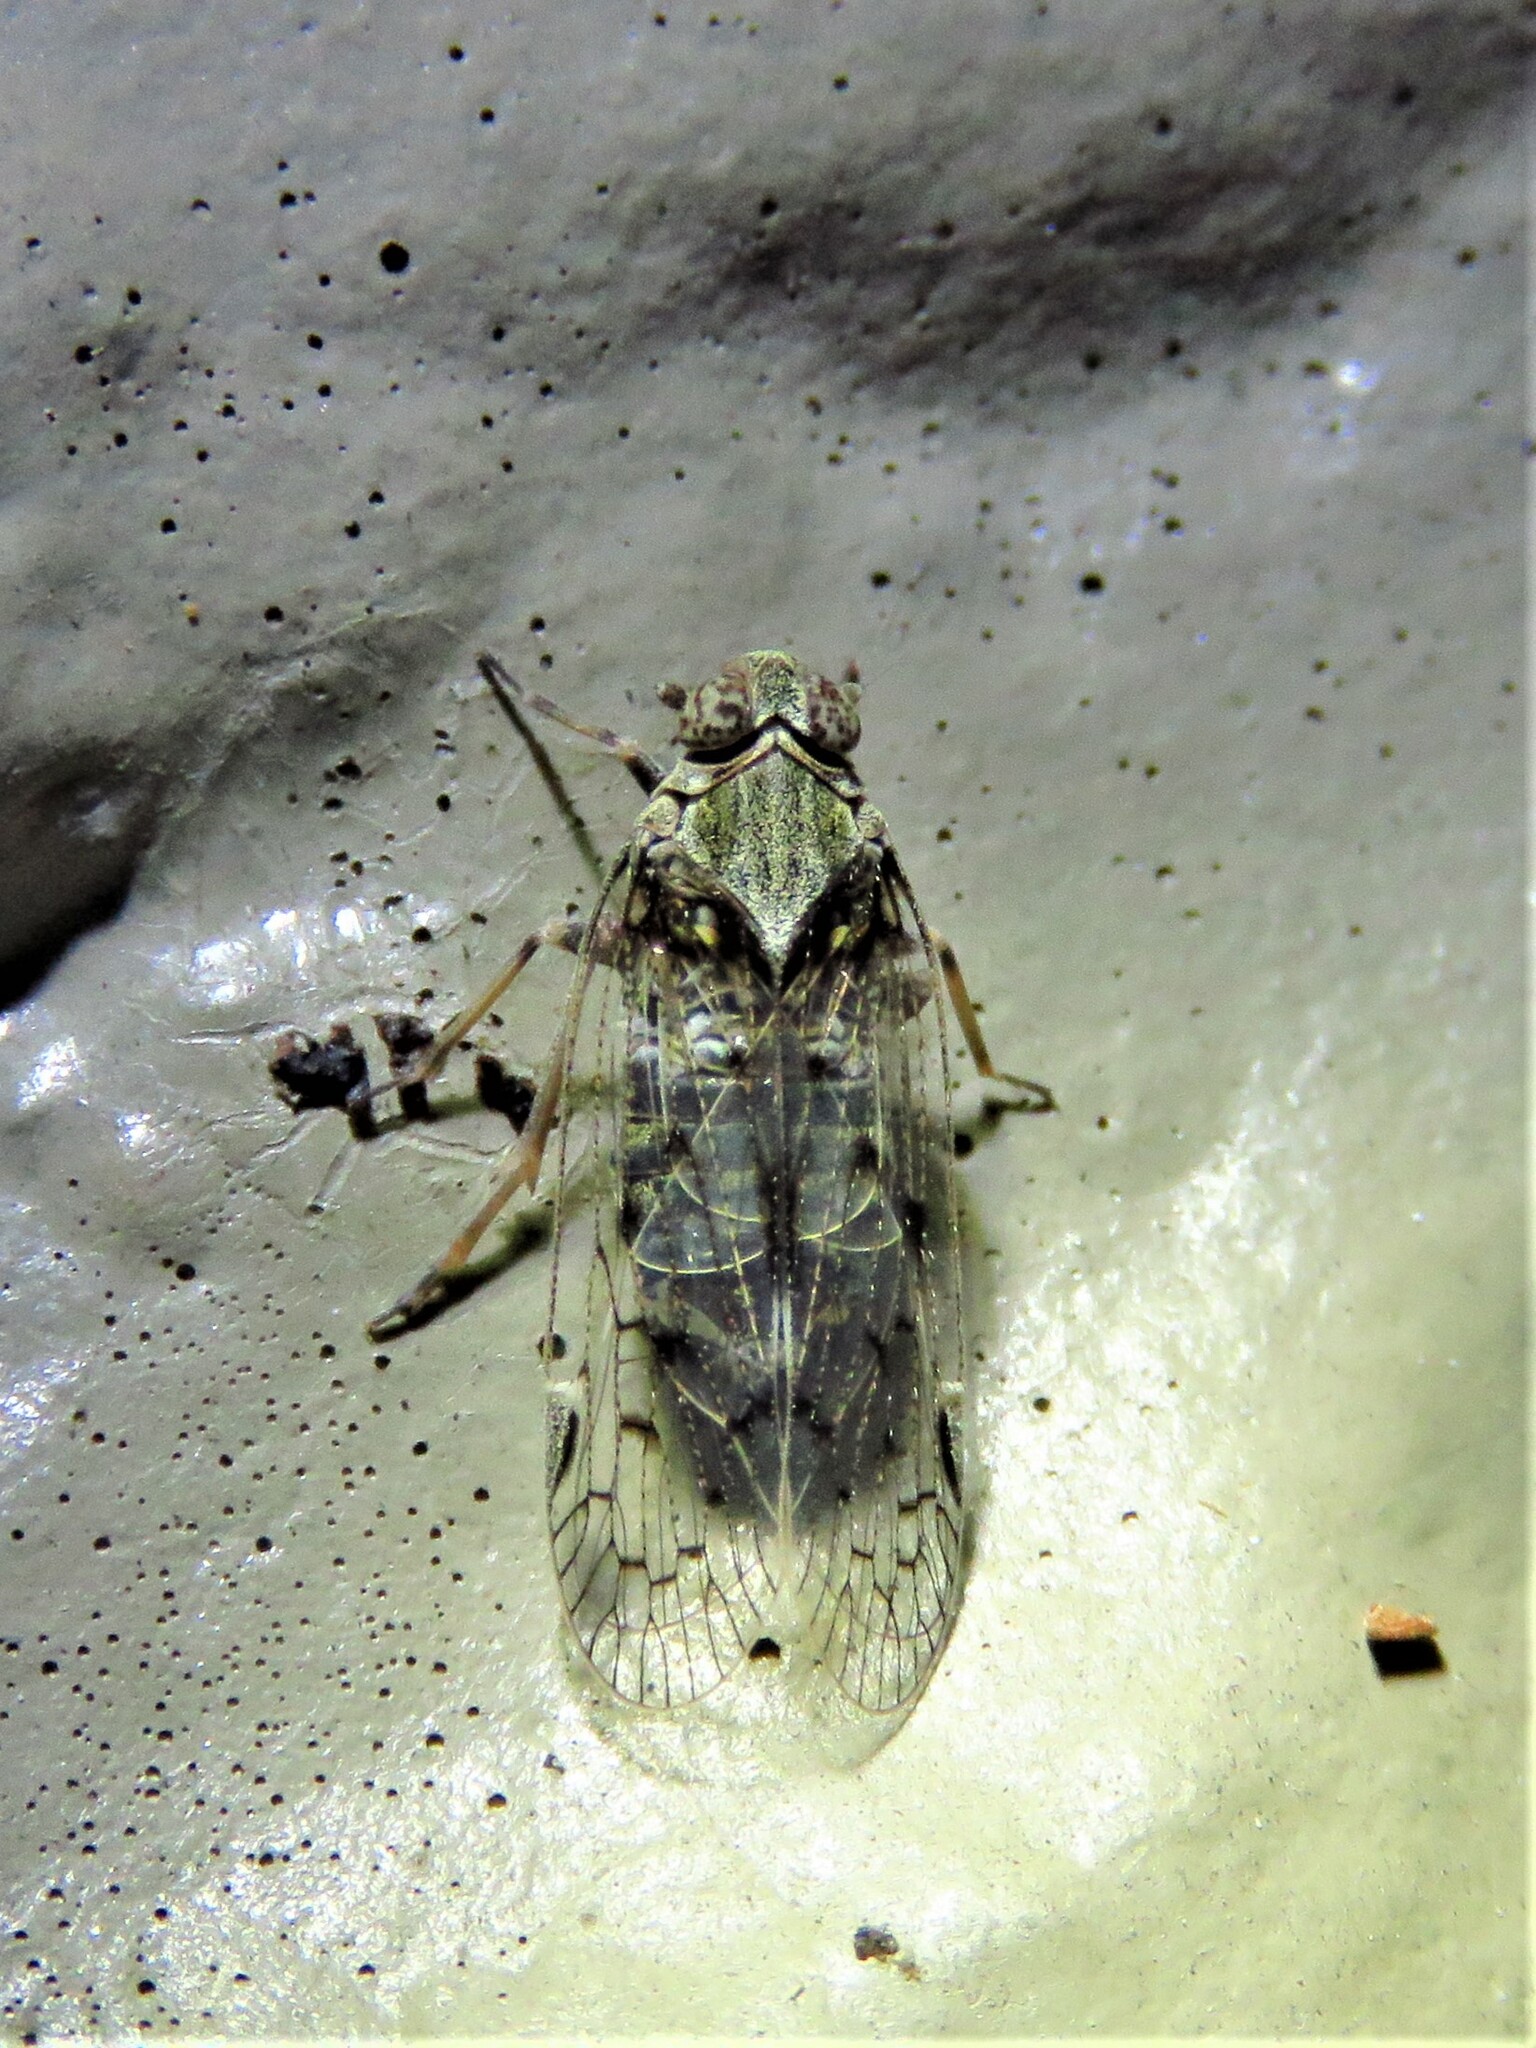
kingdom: Animalia
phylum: Arthropoda
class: Insecta
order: Hemiptera
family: Cixiidae
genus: Melanoliarus
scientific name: Melanoliarus aridus
